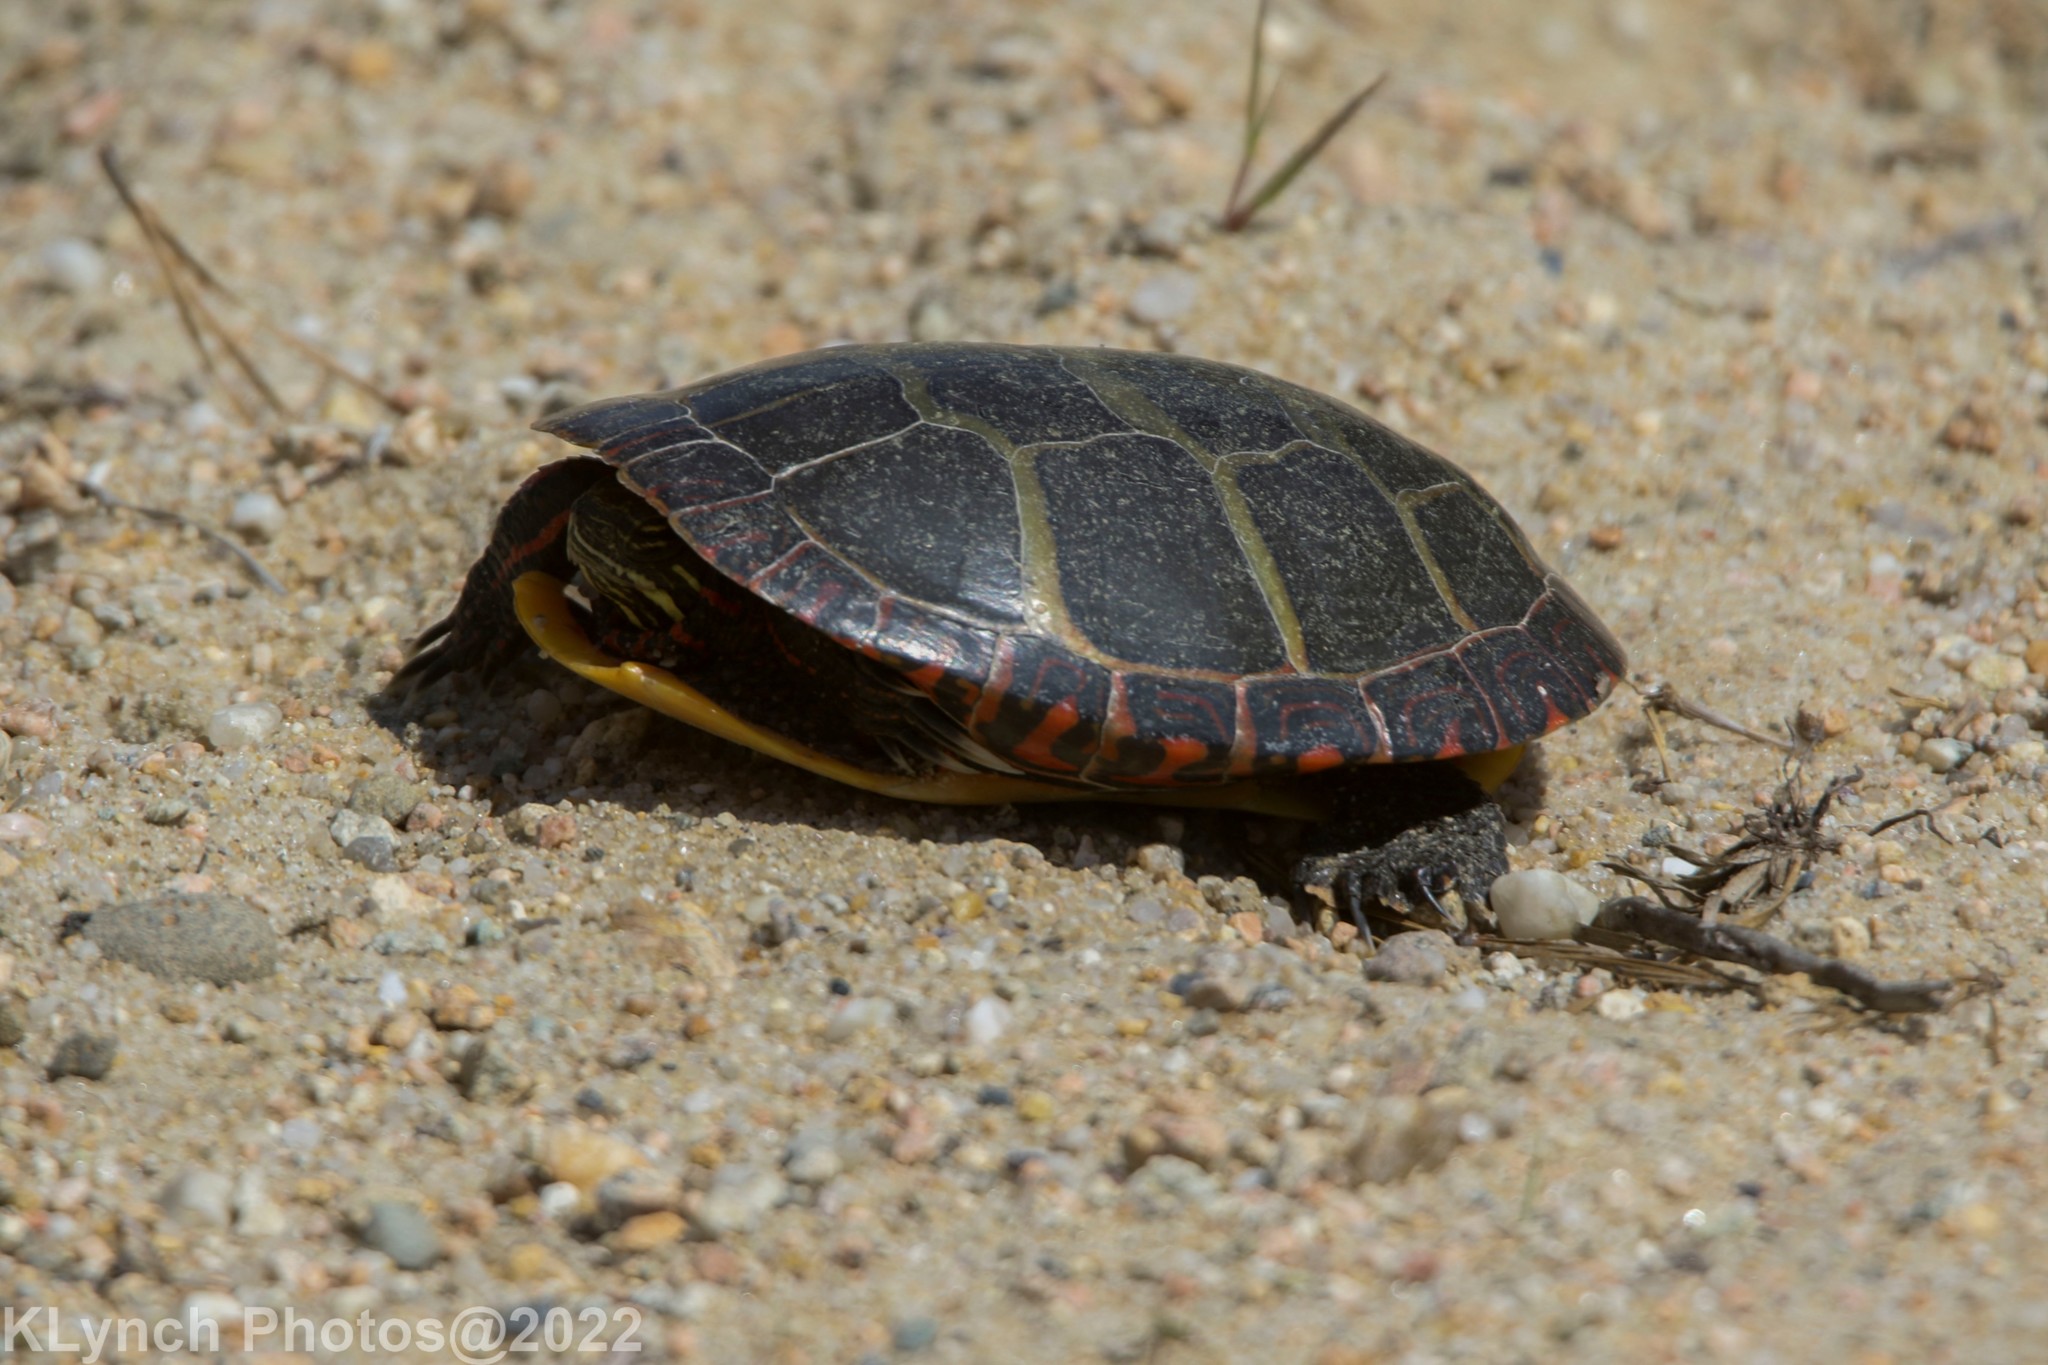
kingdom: Animalia
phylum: Chordata
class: Testudines
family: Emydidae
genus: Chrysemys
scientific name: Chrysemys picta
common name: Painted turtle
